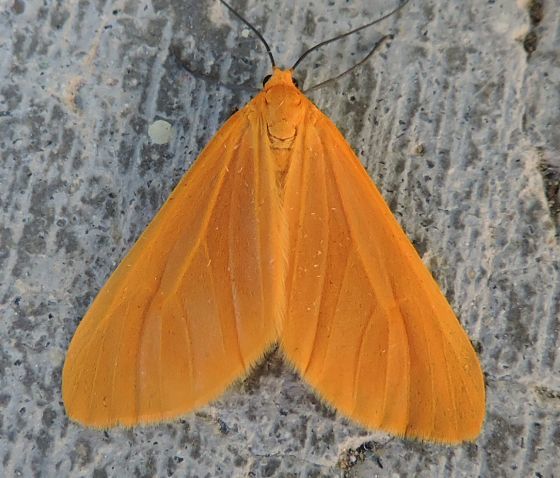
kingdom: Animalia
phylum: Arthropoda
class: Insecta
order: Lepidoptera
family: Geometridae
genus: Eubaphe
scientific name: Eubaphe unicolor
